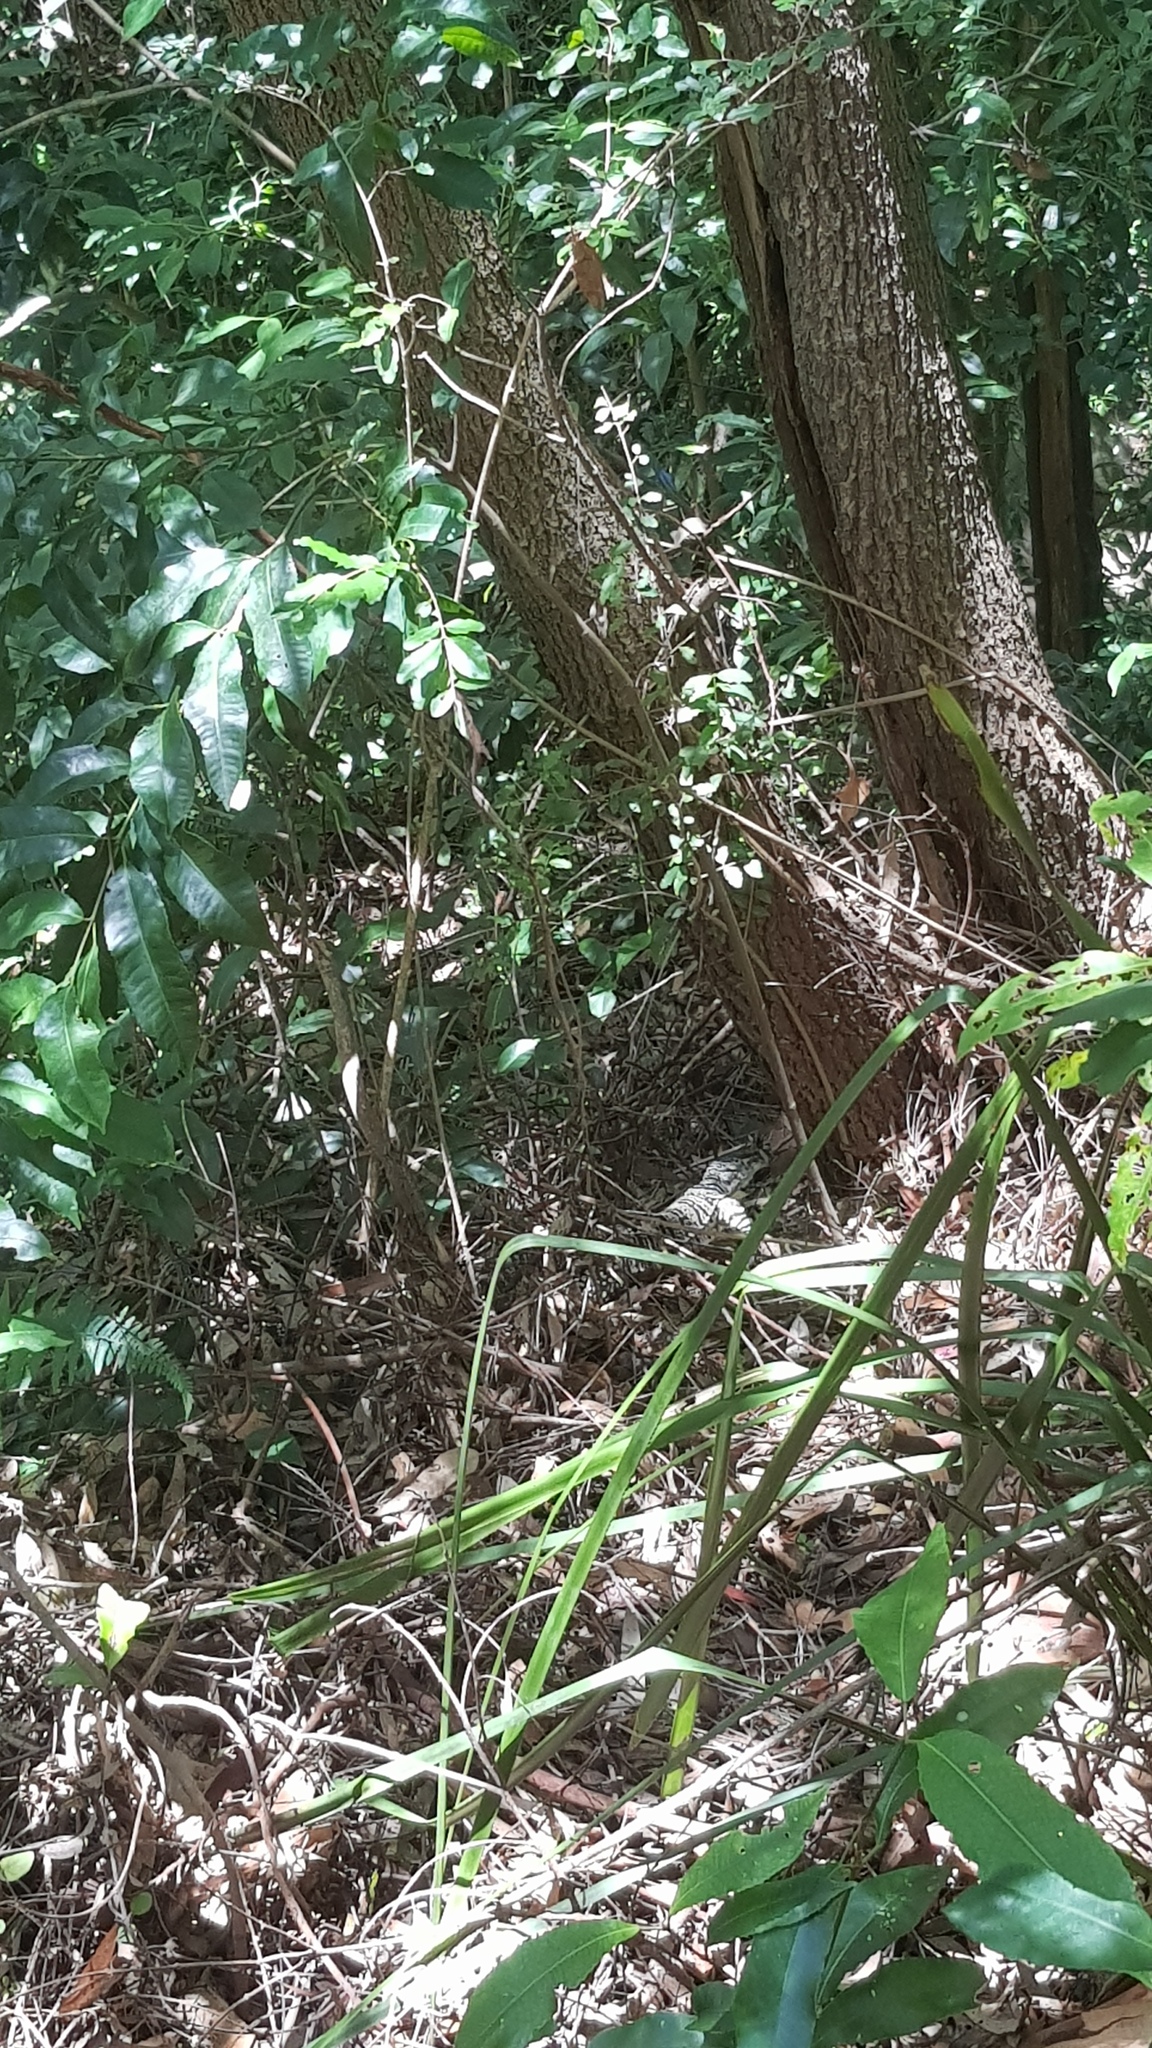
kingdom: Animalia
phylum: Chordata
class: Squamata
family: Varanidae
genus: Varanus
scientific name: Varanus varius
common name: Lace monitor
